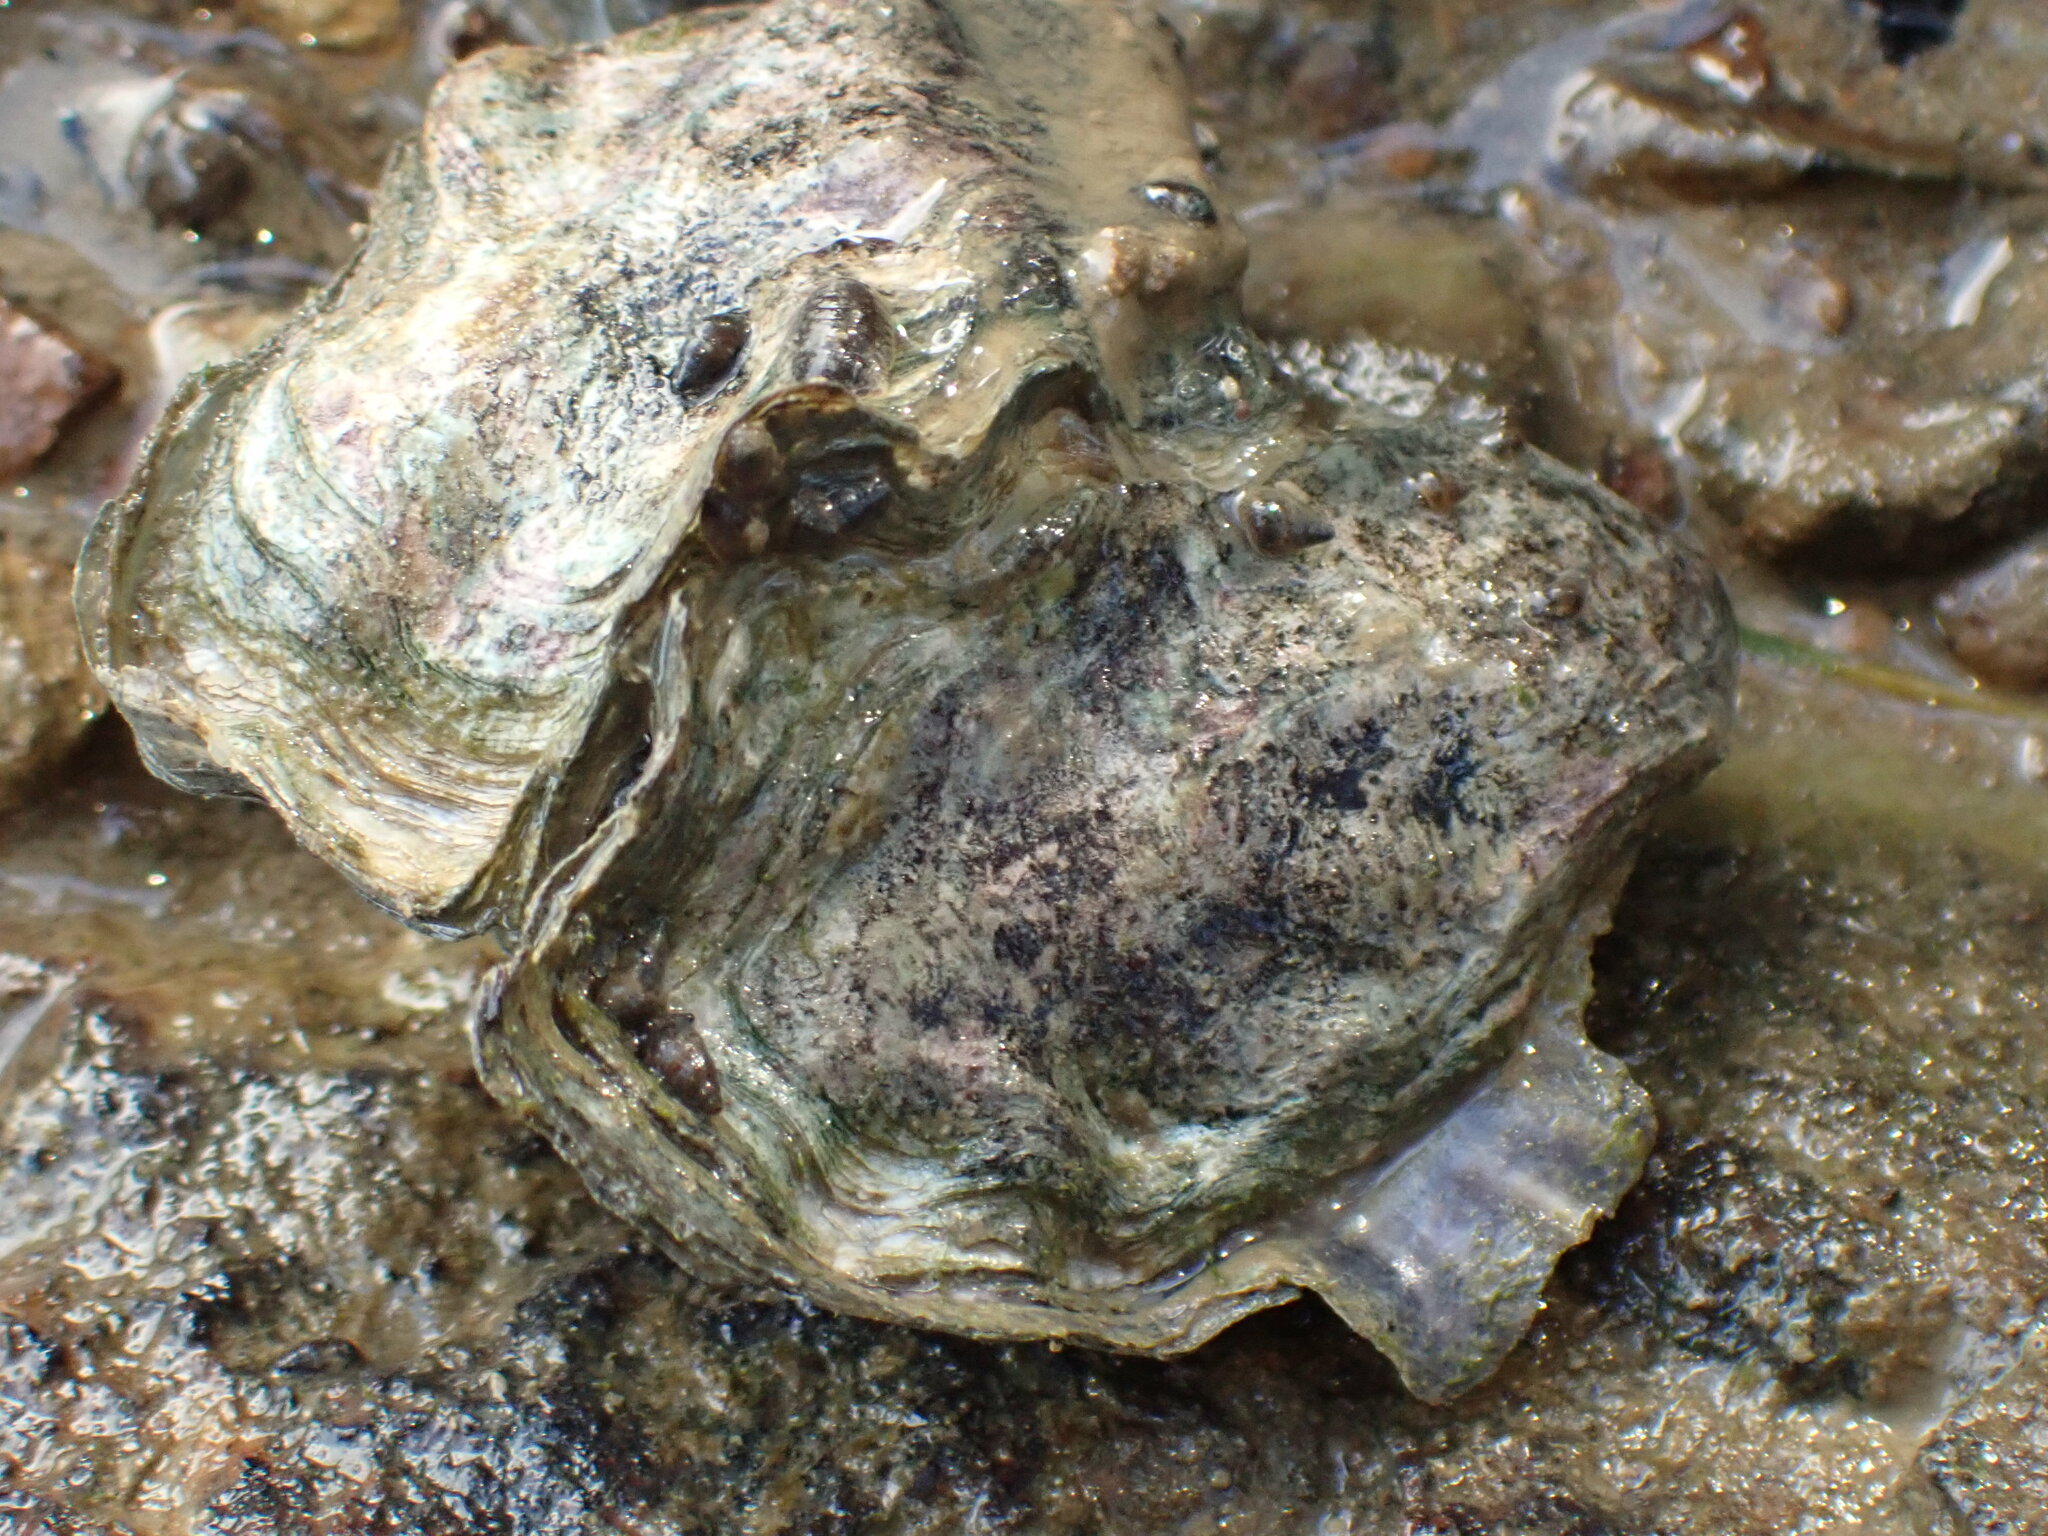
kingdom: Animalia
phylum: Mollusca
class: Bivalvia
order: Ostreida
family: Ostreidae
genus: Magallana
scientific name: Magallana gigas
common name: Pacific oyster
